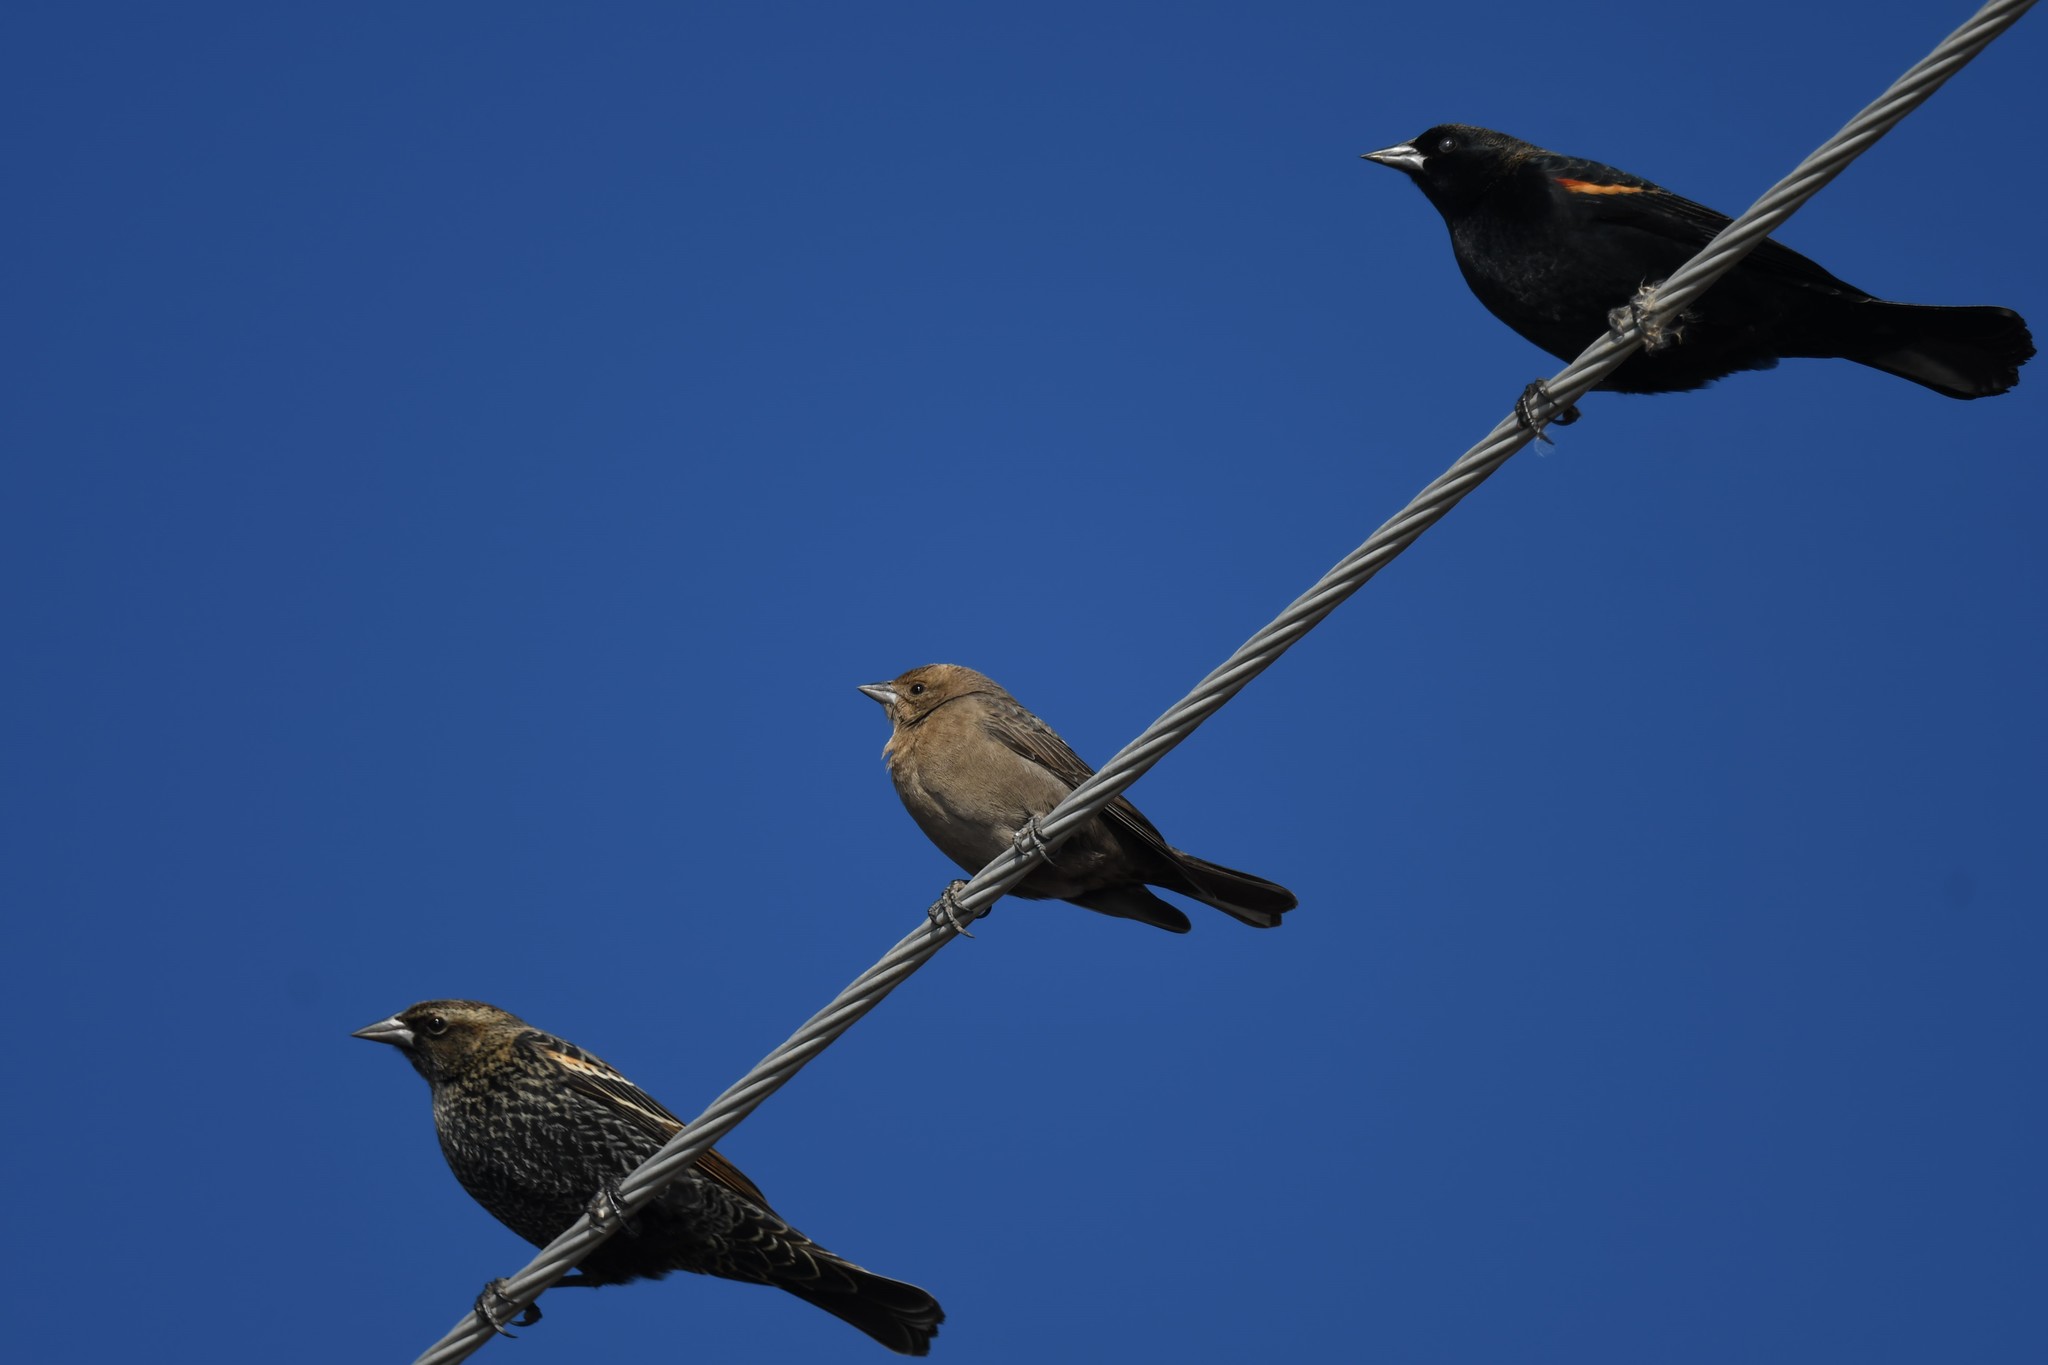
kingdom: Animalia
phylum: Chordata
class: Aves
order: Passeriformes
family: Icteridae
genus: Molothrus
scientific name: Molothrus ater
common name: Brown-headed cowbird
